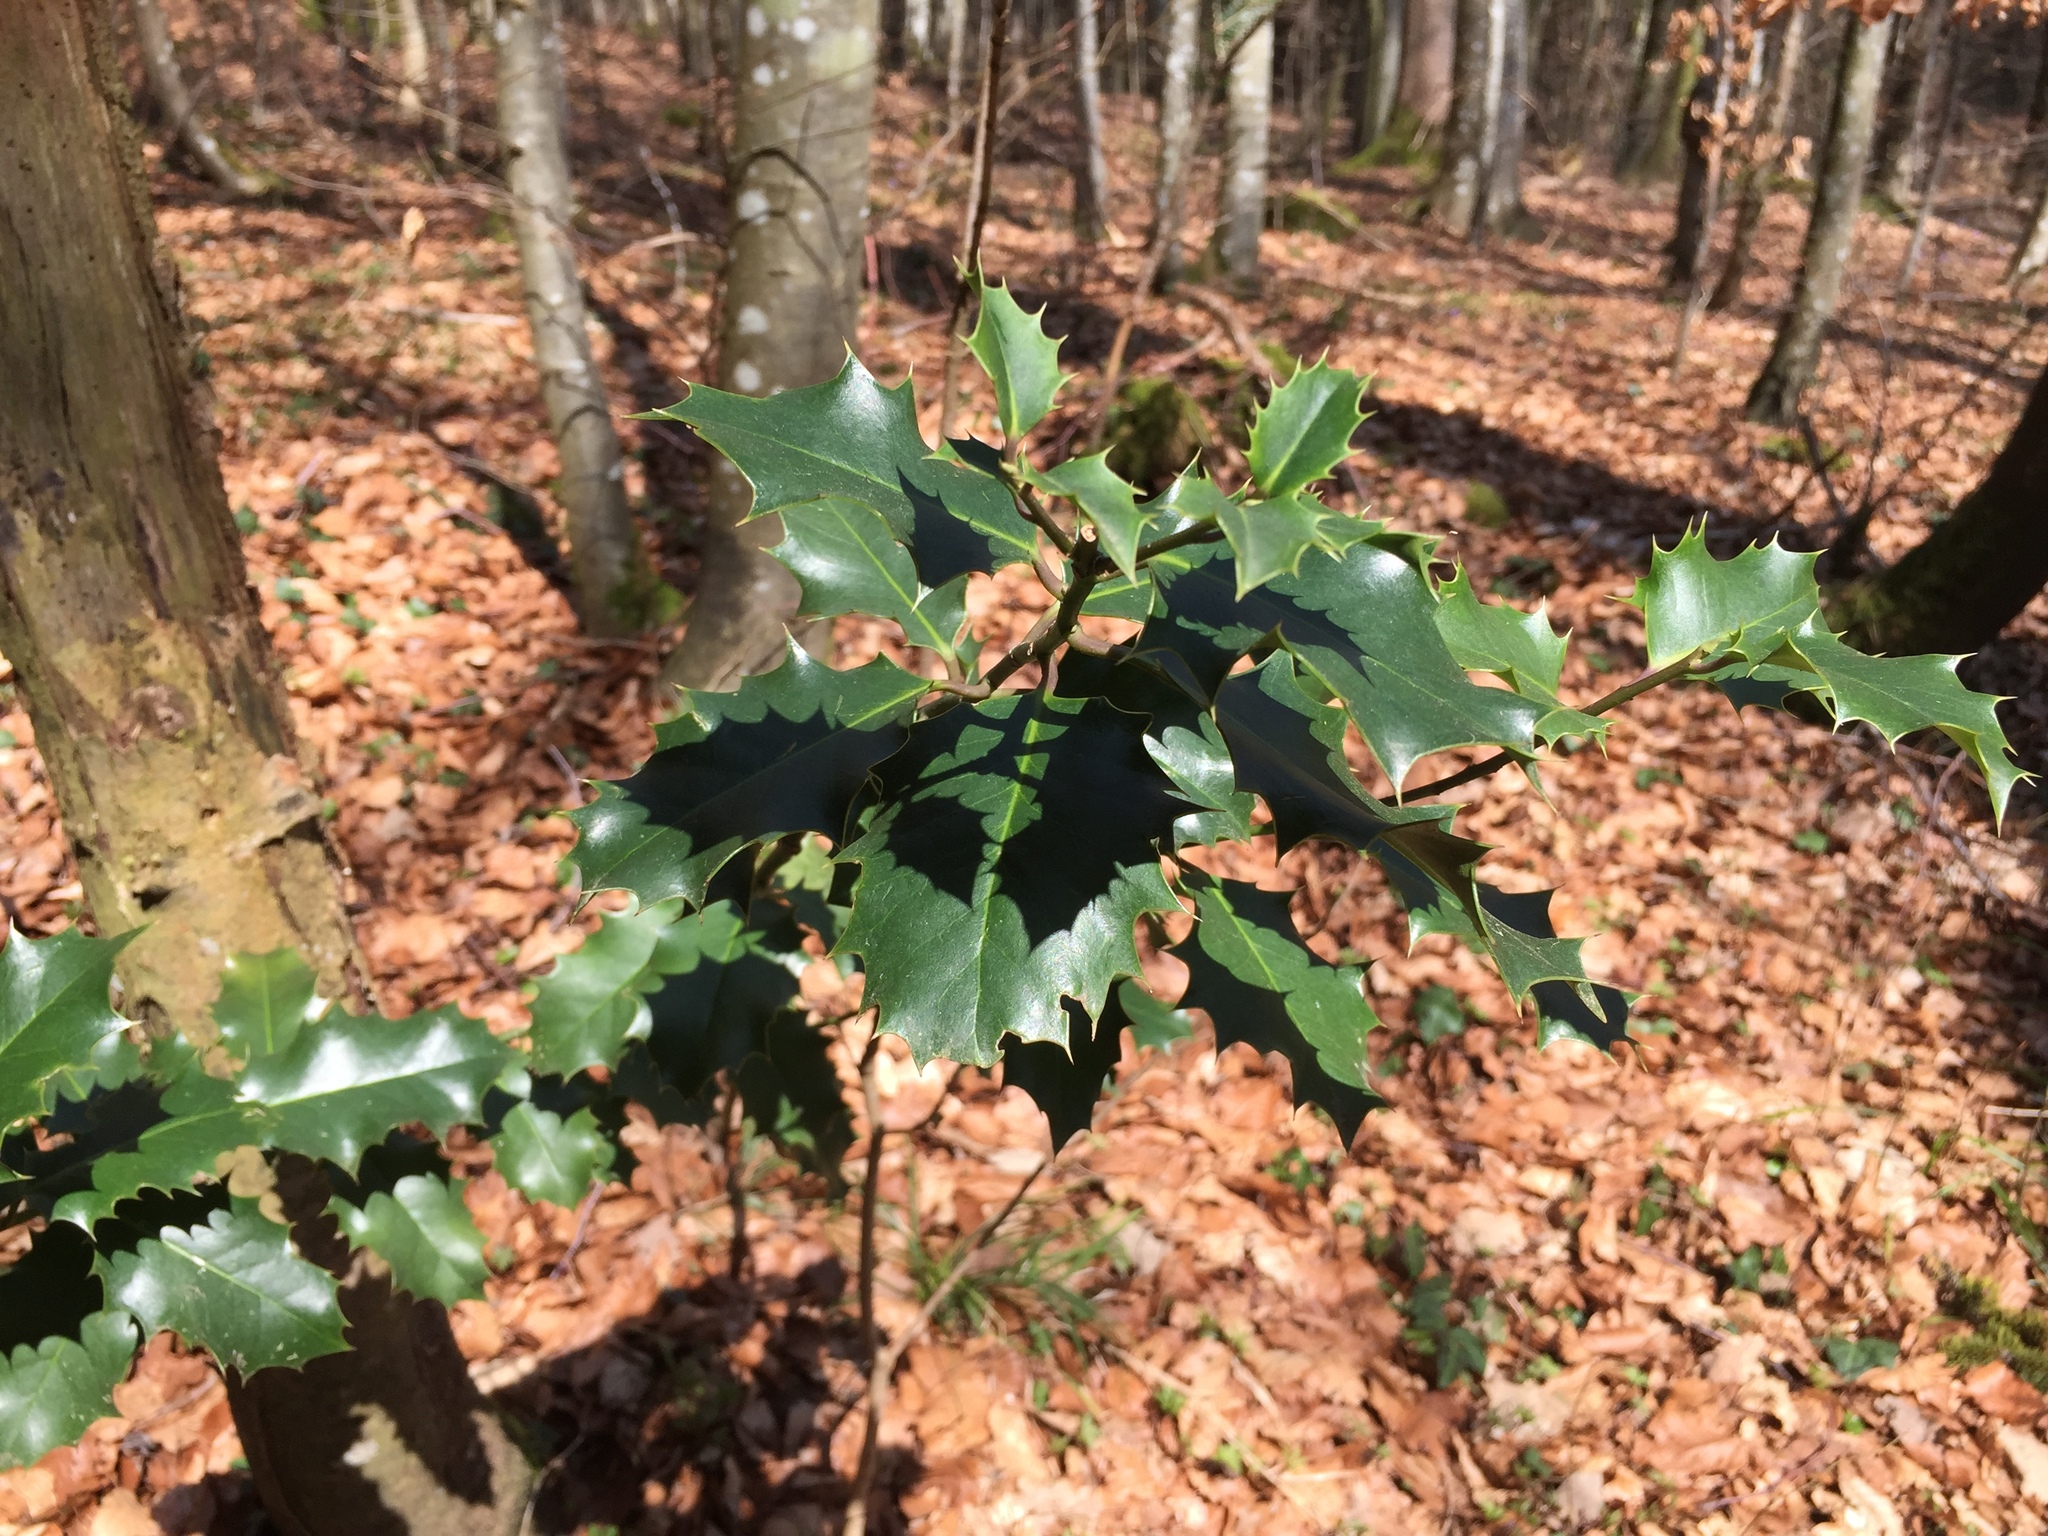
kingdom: Plantae
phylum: Tracheophyta
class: Magnoliopsida
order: Aquifoliales
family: Aquifoliaceae
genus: Ilex
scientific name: Ilex aquifolium
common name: English holly
